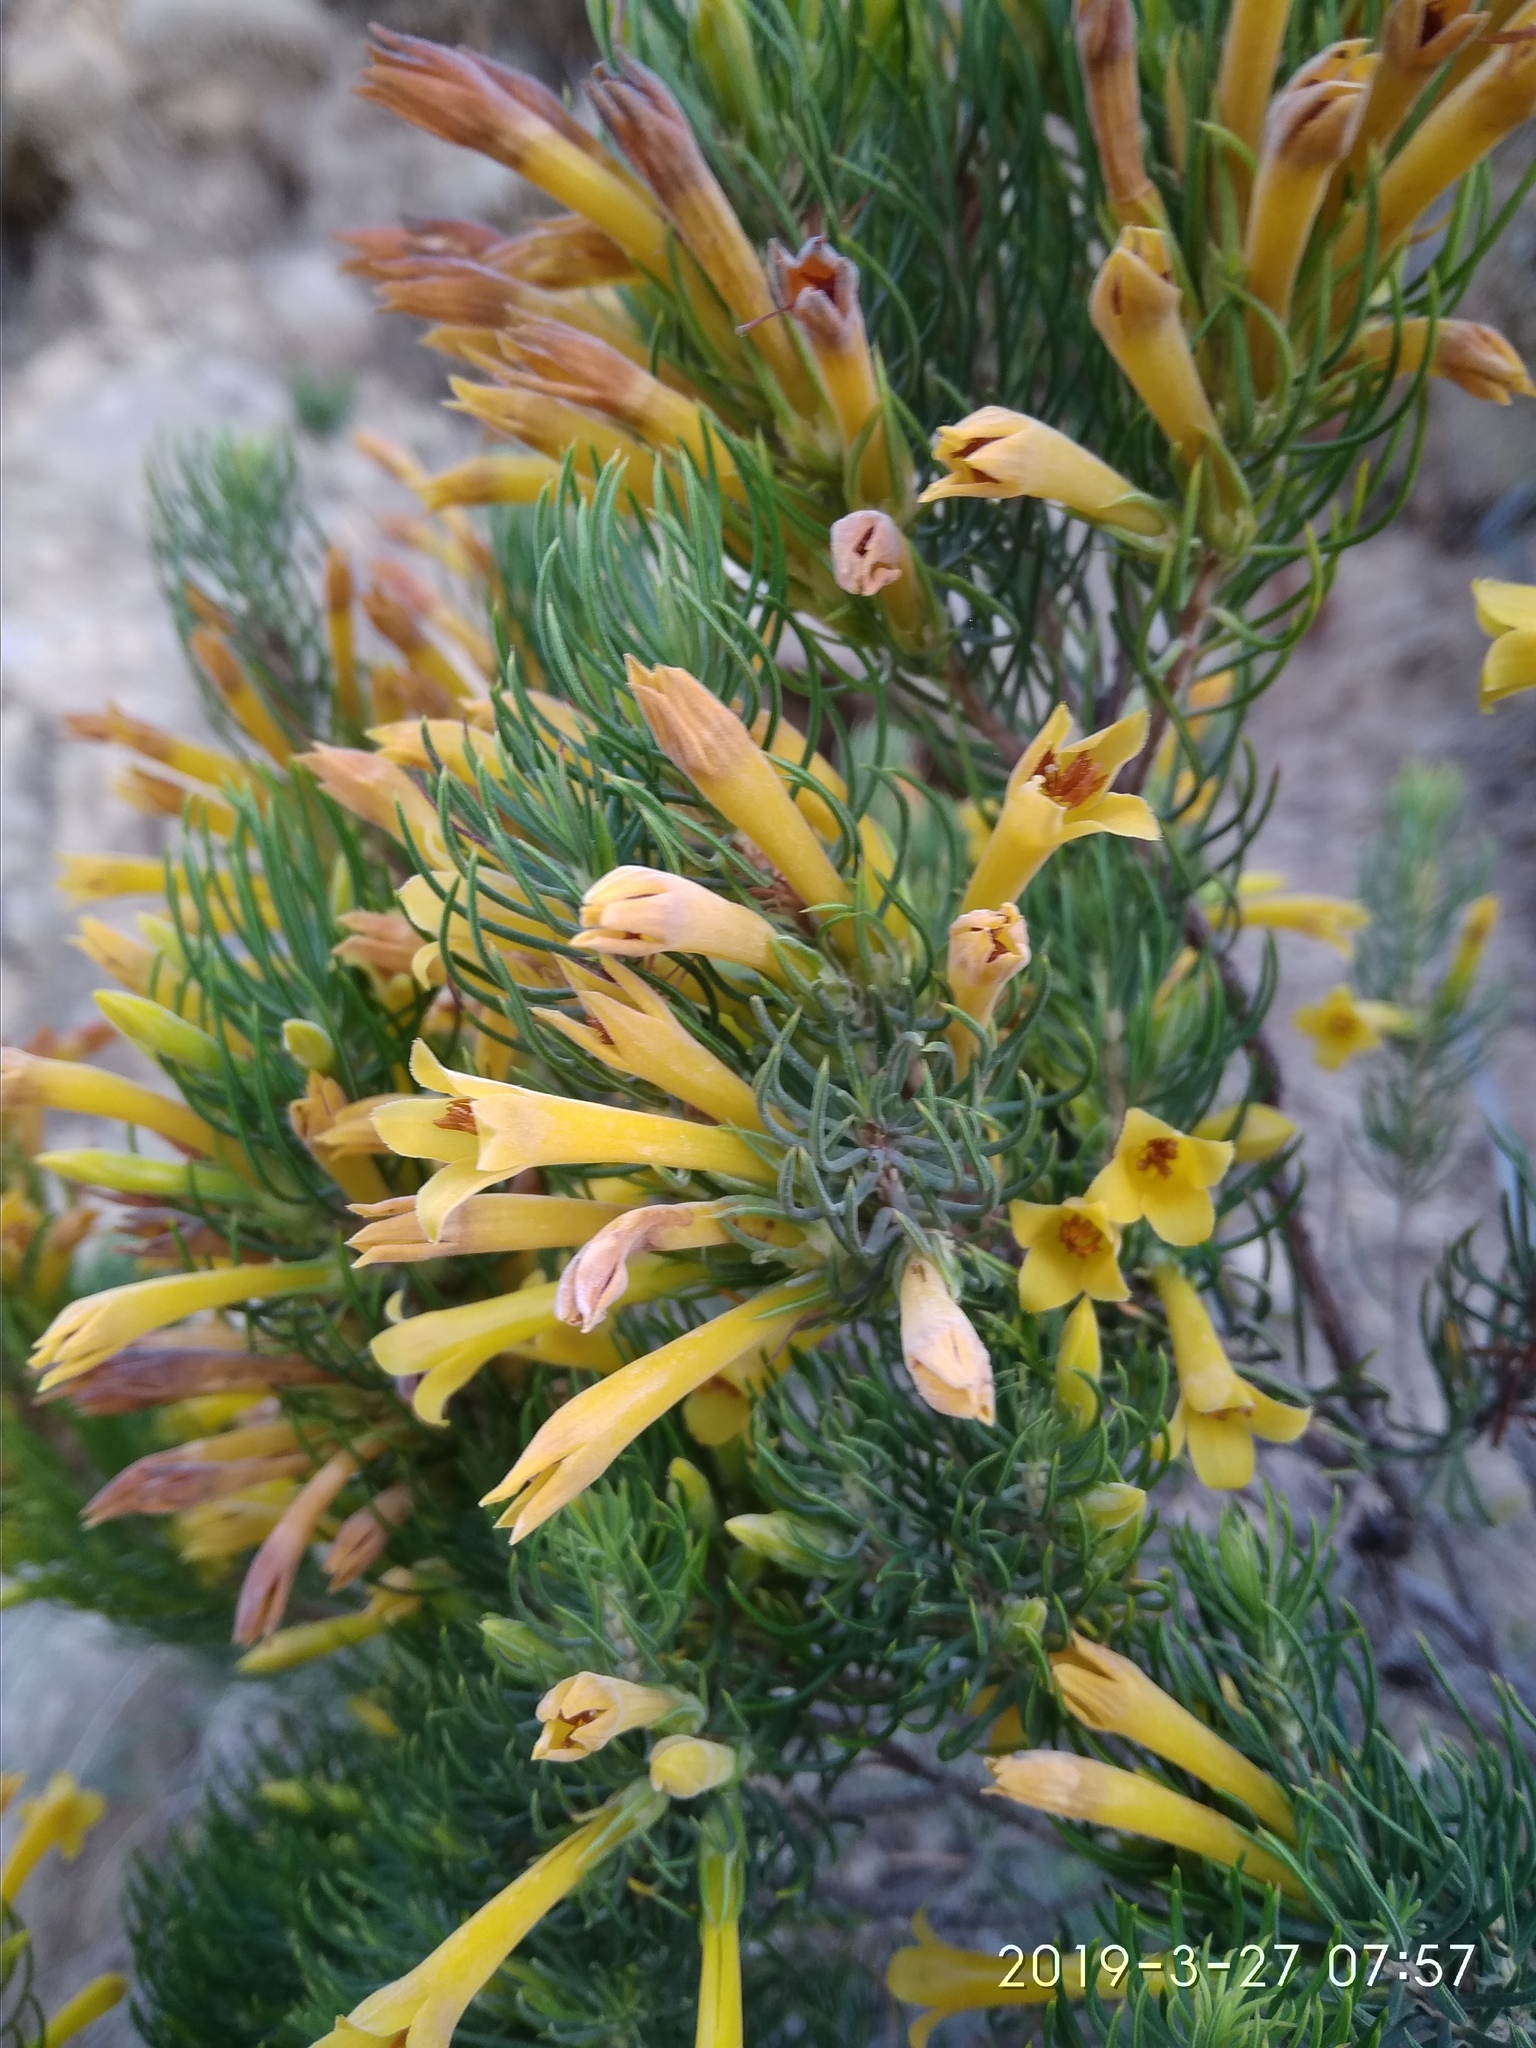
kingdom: Plantae
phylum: Tracheophyta
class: Magnoliopsida
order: Ericales
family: Ericaceae
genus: Erica
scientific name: Erica grandiflora
